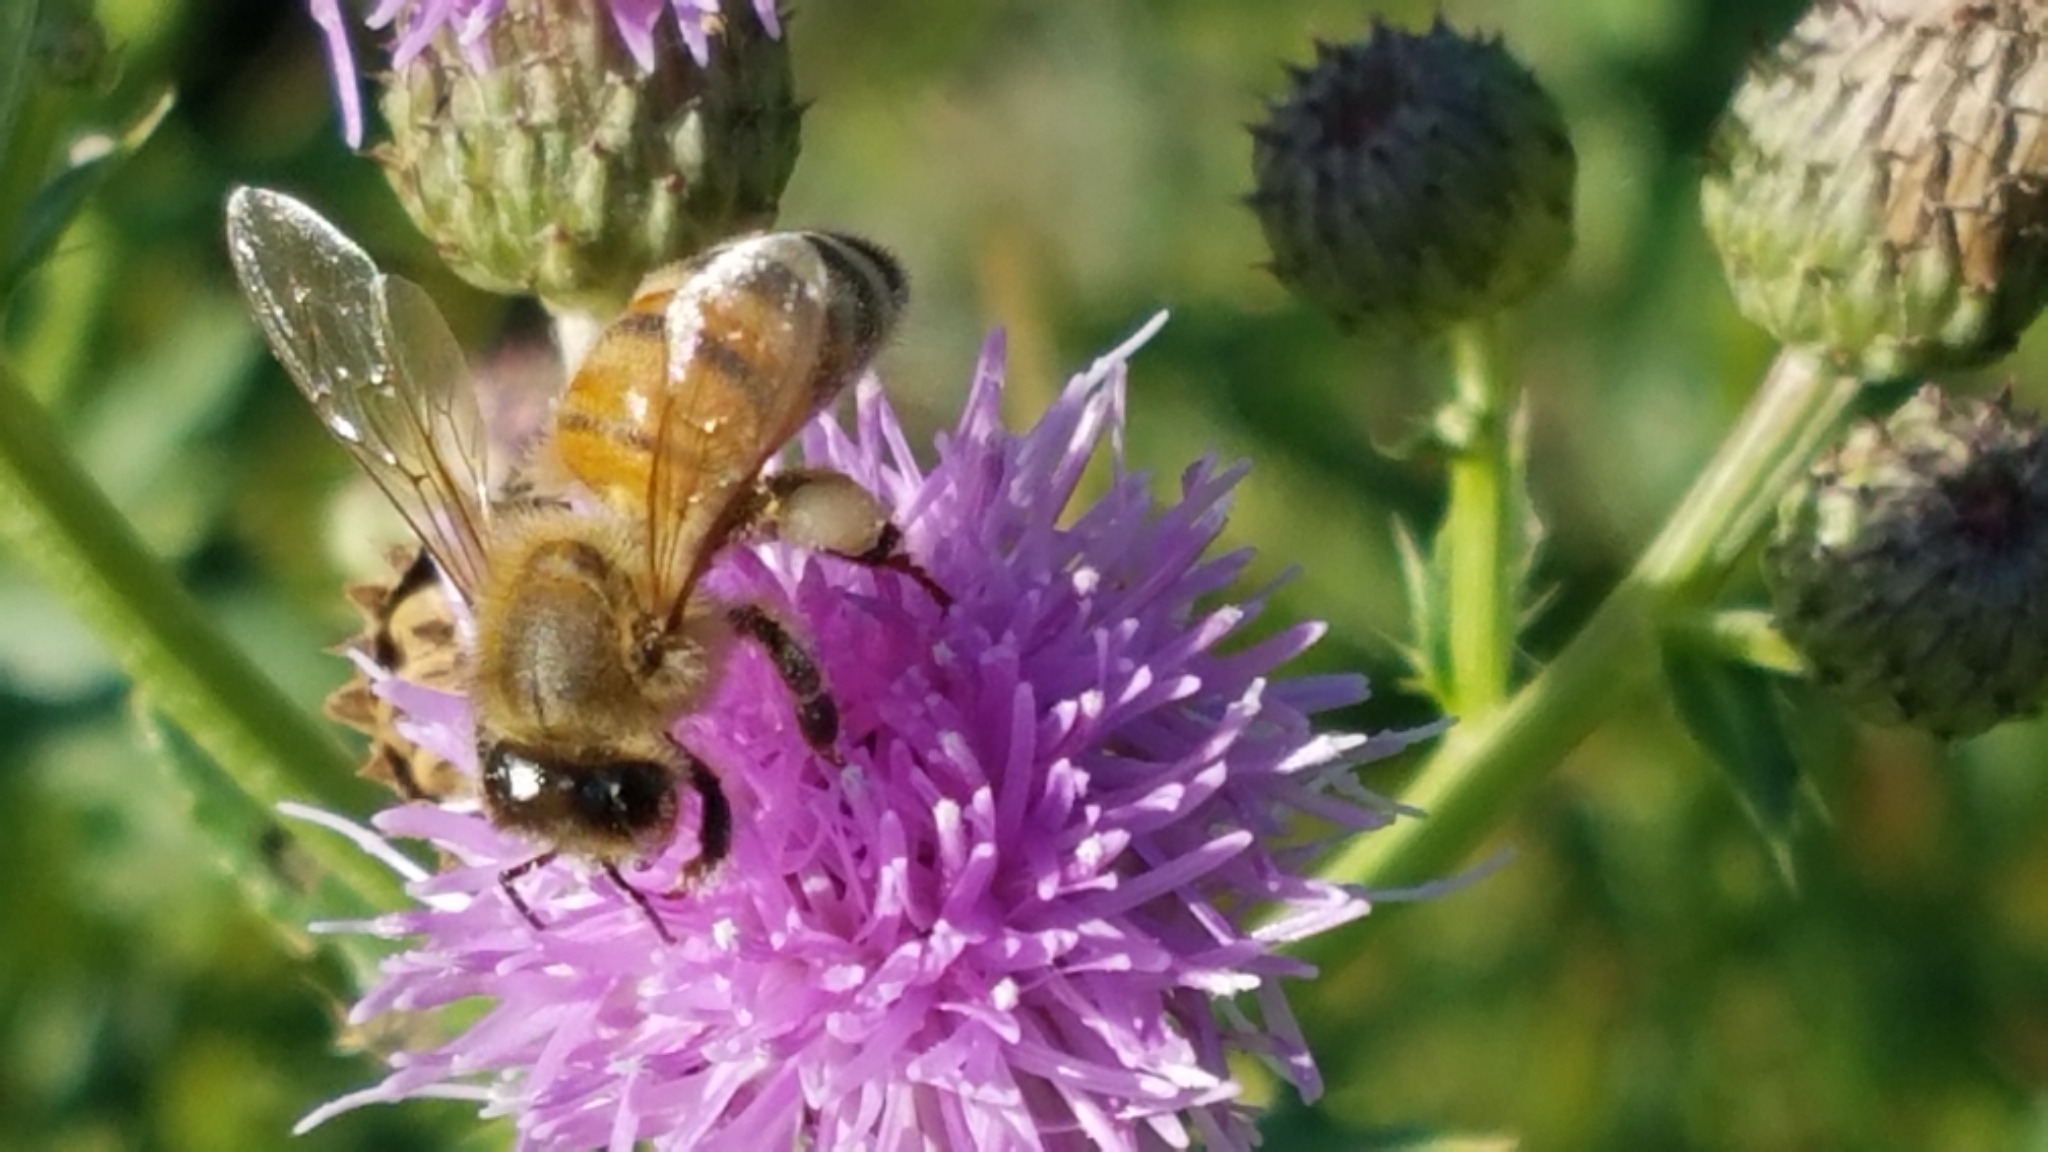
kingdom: Animalia
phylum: Arthropoda
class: Insecta
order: Hymenoptera
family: Apidae
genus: Apis
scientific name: Apis mellifera
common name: Honey bee
